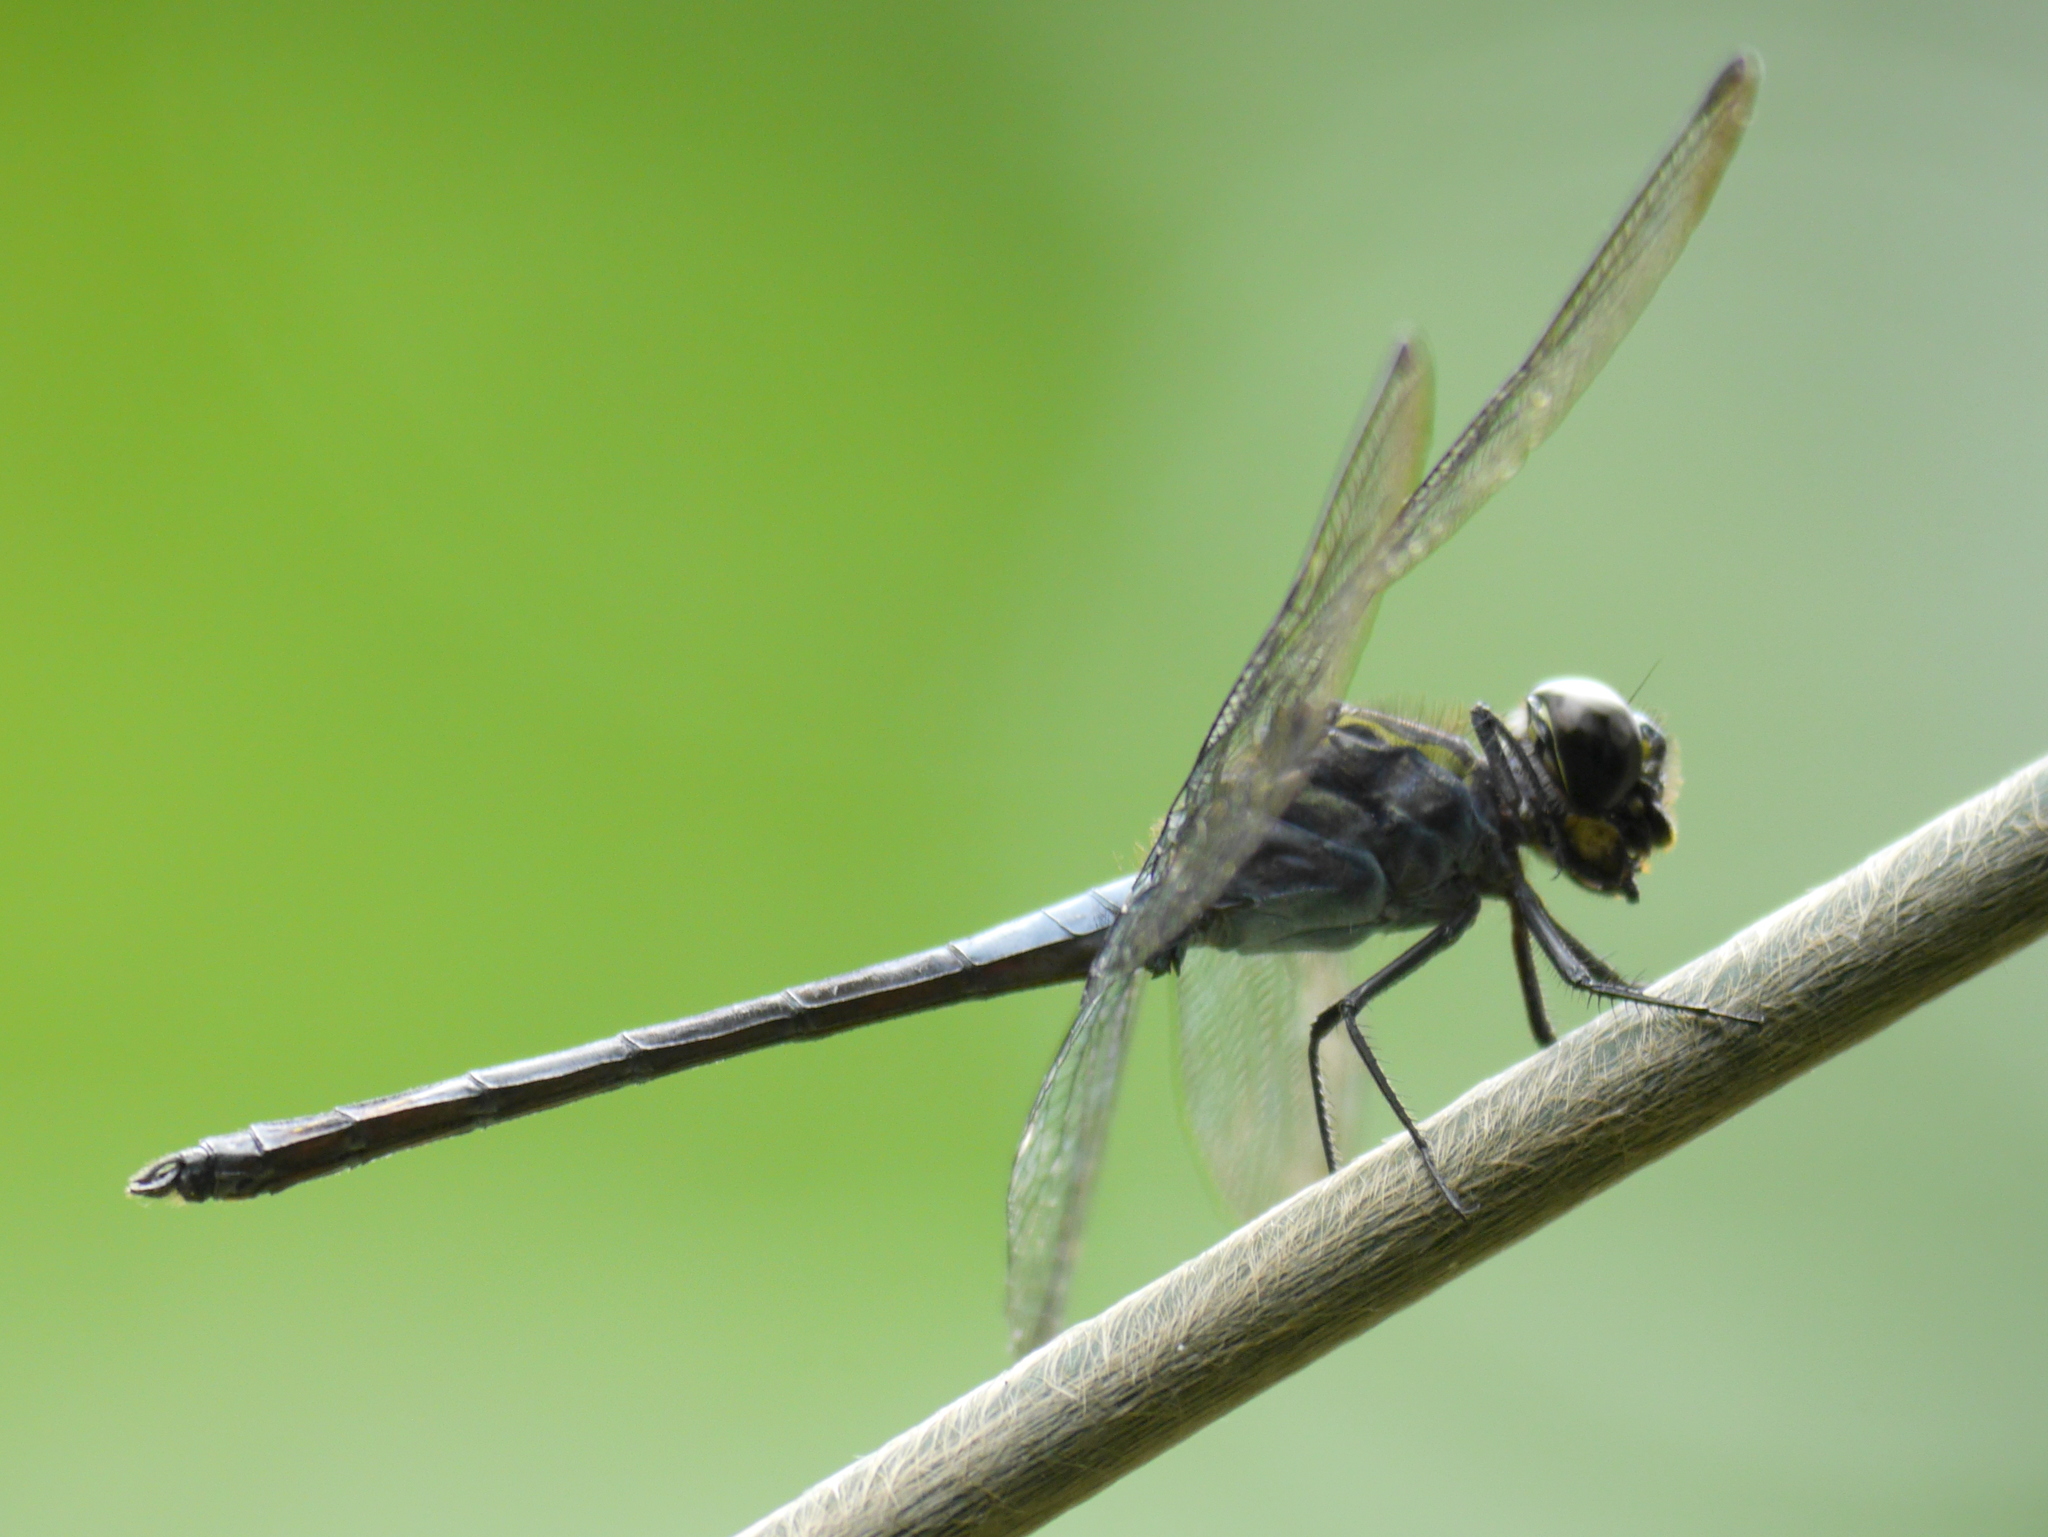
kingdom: Animalia
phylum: Arthropoda
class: Insecta
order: Odonata
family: Libellulidae
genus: Hadrothemis
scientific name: Hadrothemis infesta
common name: Slender jungleskimmer
